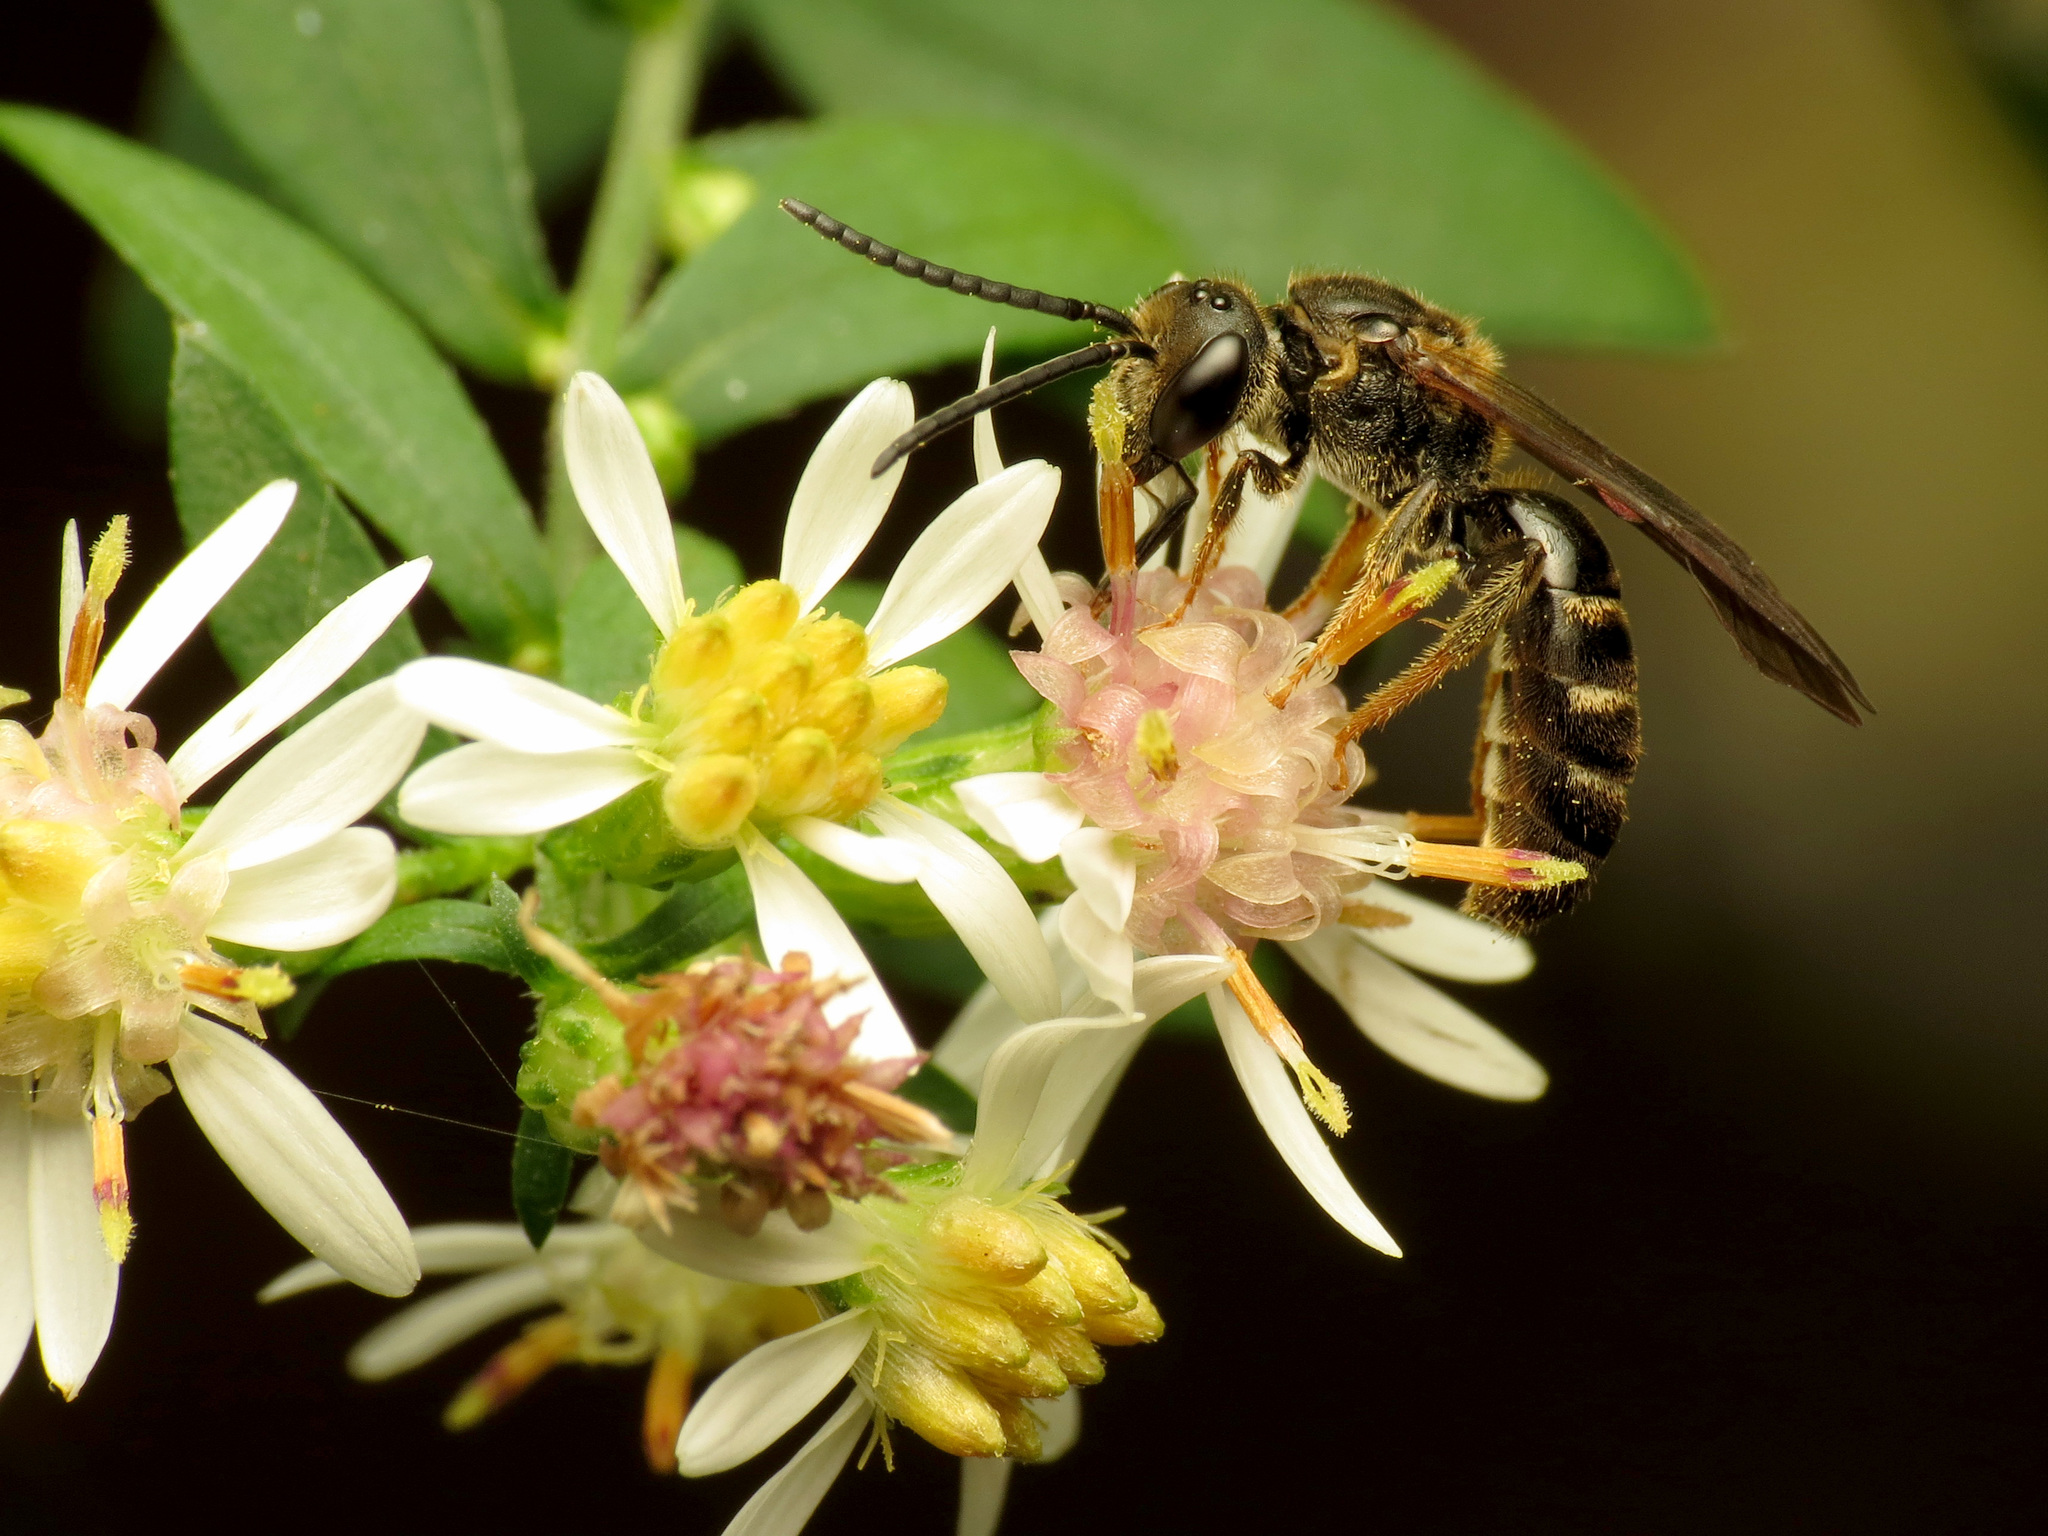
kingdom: Animalia
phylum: Arthropoda
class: Insecta
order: Hymenoptera
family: Halictidae
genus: Lasioglossum
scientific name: Lasioglossum fuscipenne
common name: Brown-winged sweat bee
